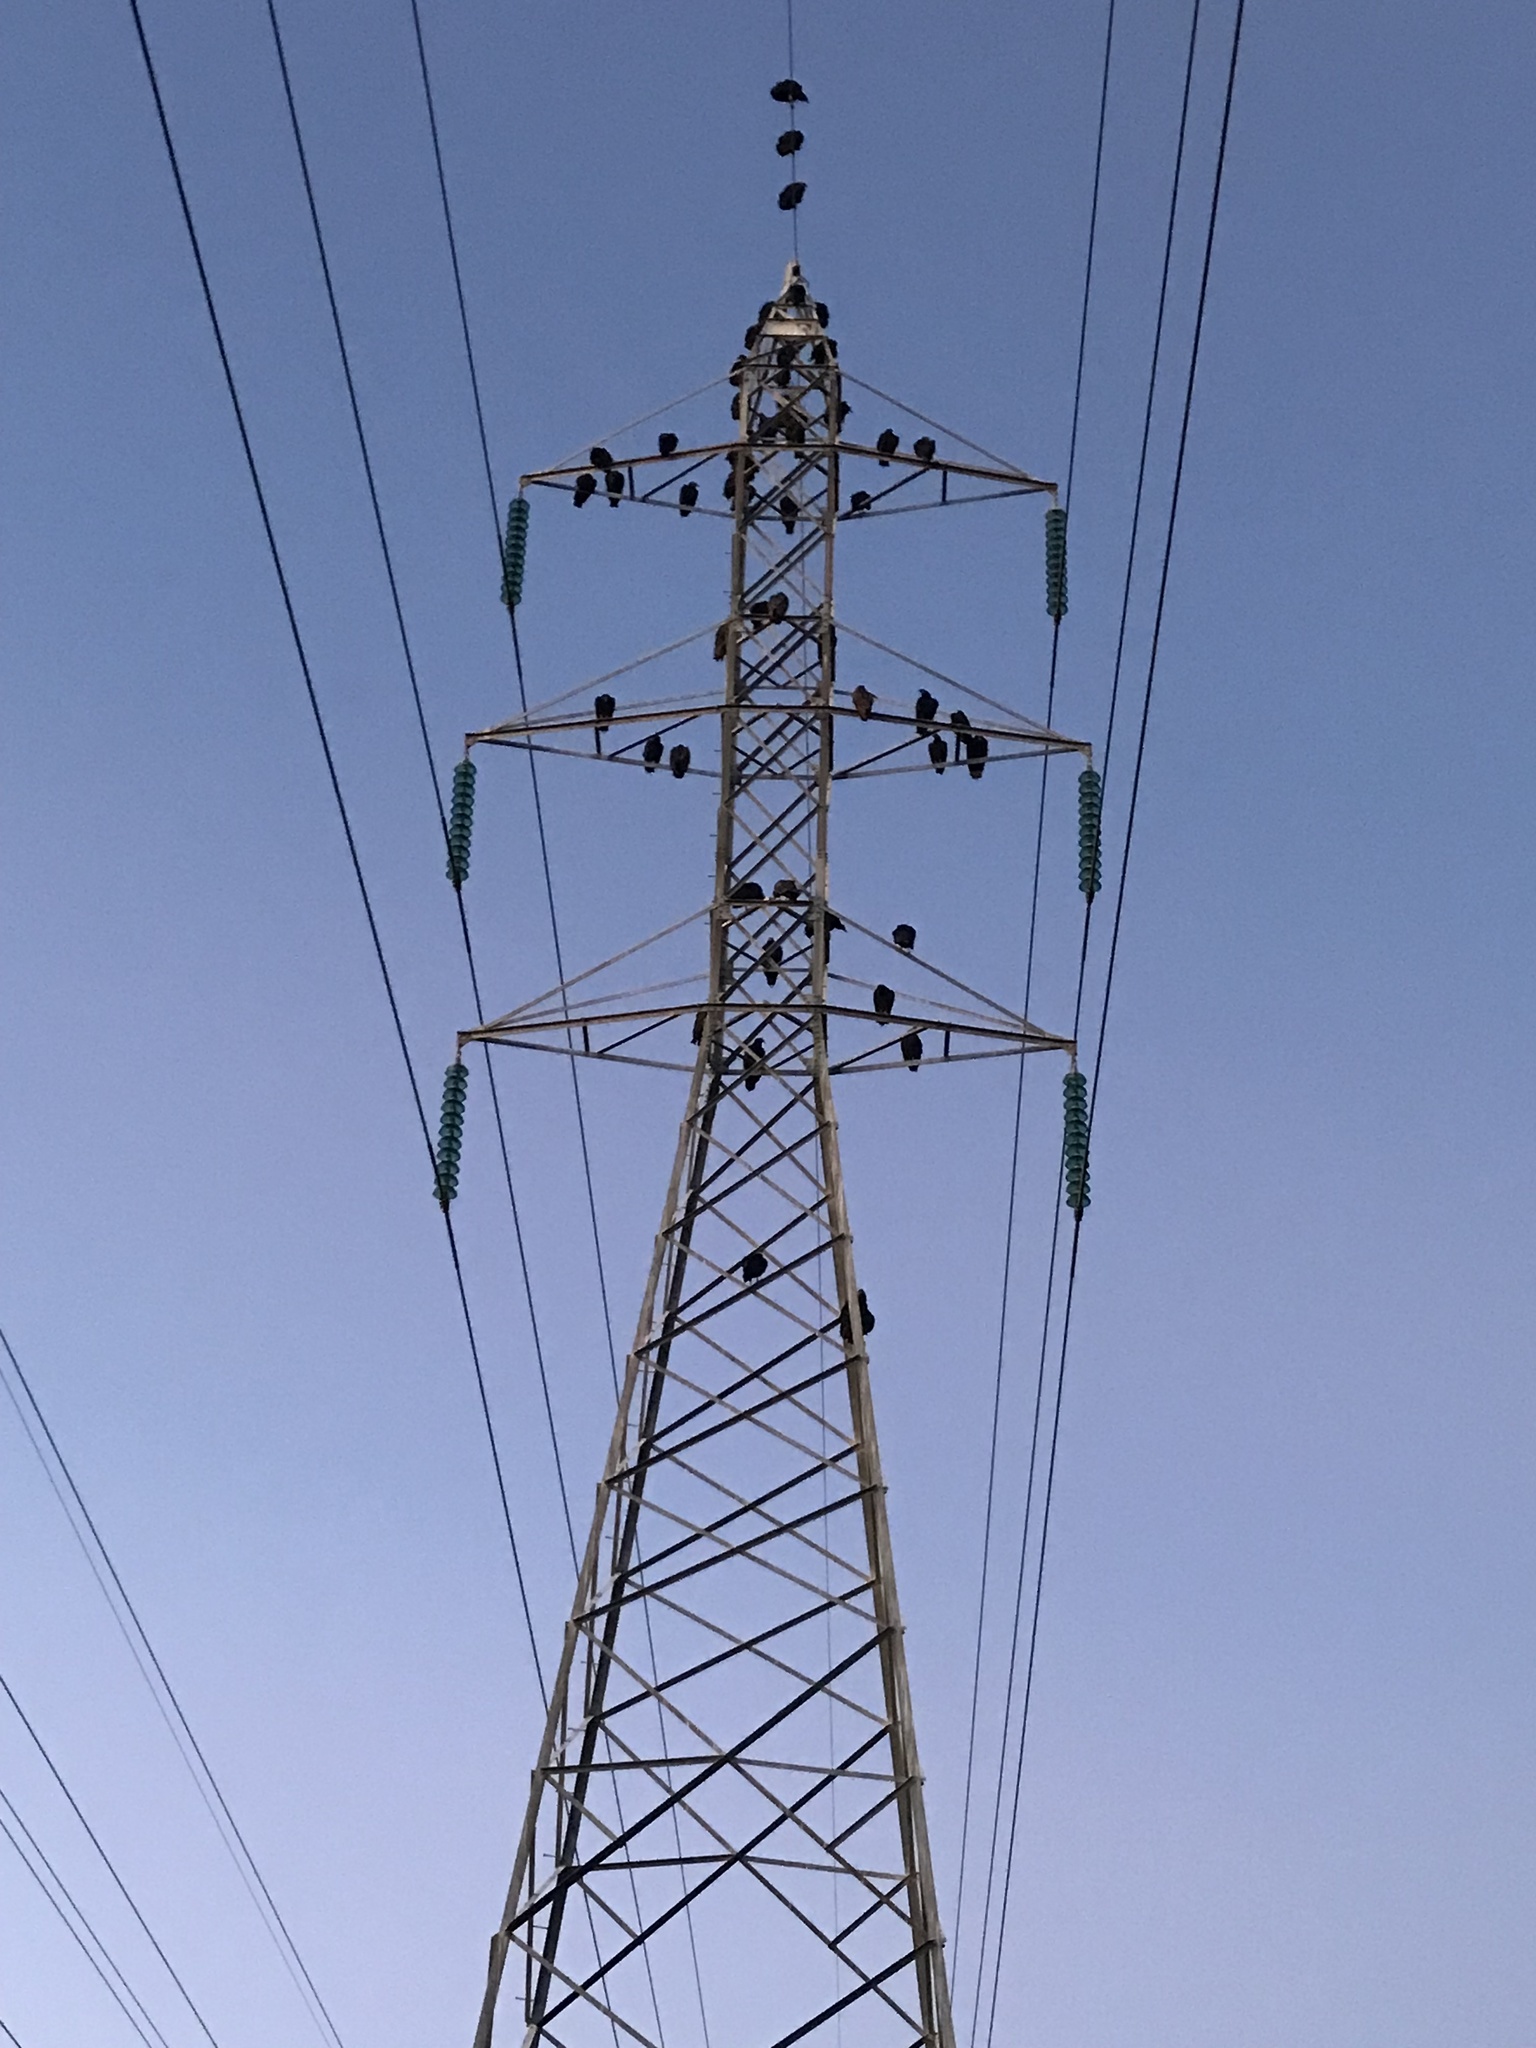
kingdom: Animalia
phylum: Chordata
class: Aves
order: Accipitriformes
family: Cathartidae
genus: Coragyps
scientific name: Coragyps atratus
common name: Black vulture
